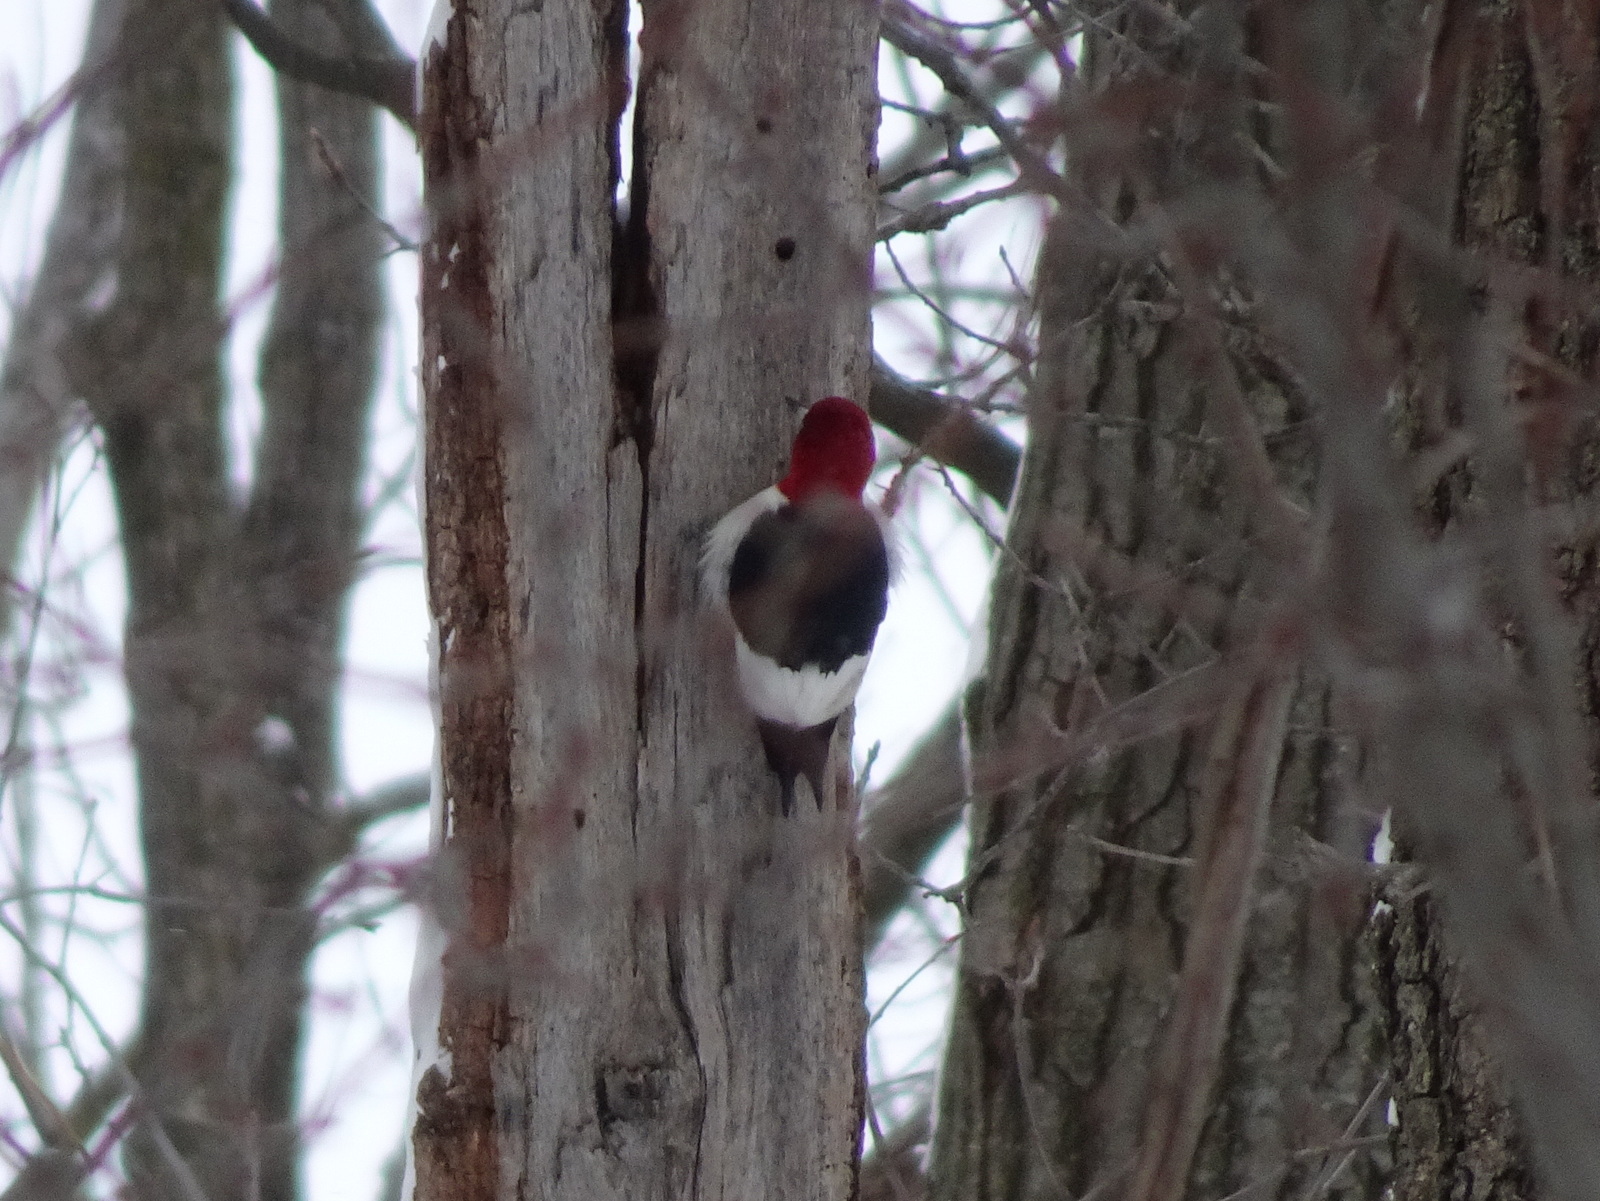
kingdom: Animalia
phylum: Chordata
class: Aves
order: Piciformes
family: Picidae
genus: Melanerpes
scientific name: Melanerpes erythrocephalus
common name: Red-headed woodpecker
